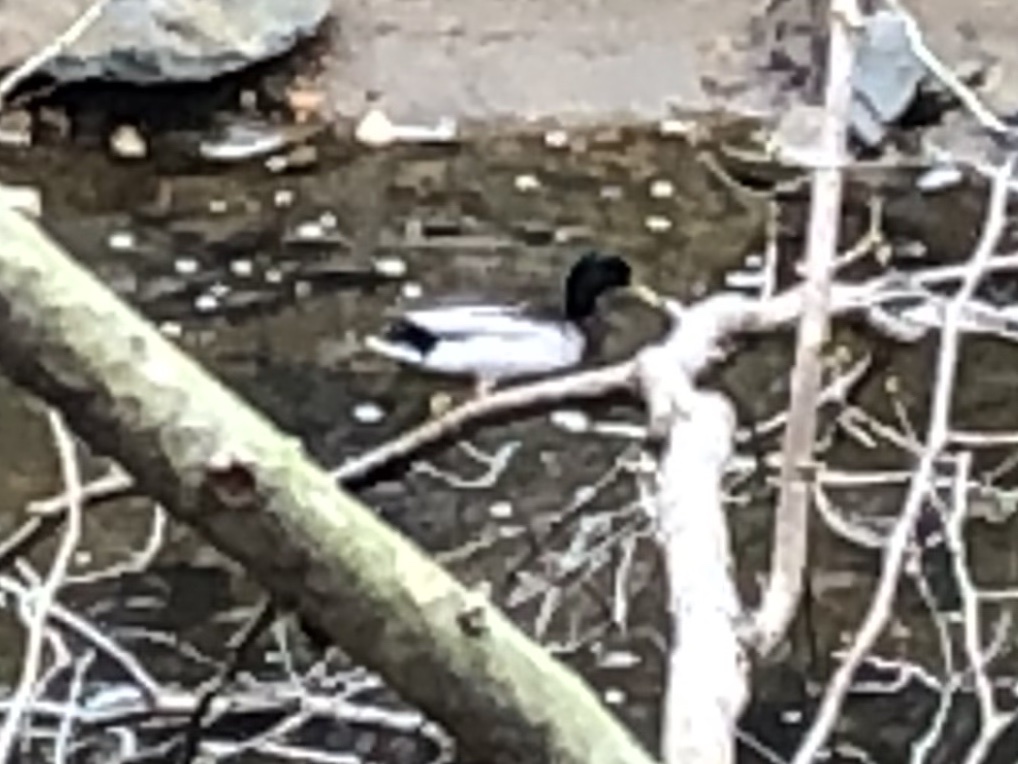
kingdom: Animalia
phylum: Chordata
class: Aves
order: Anseriformes
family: Anatidae
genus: Anas
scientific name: Anas platyrhynchos
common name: Mallard
